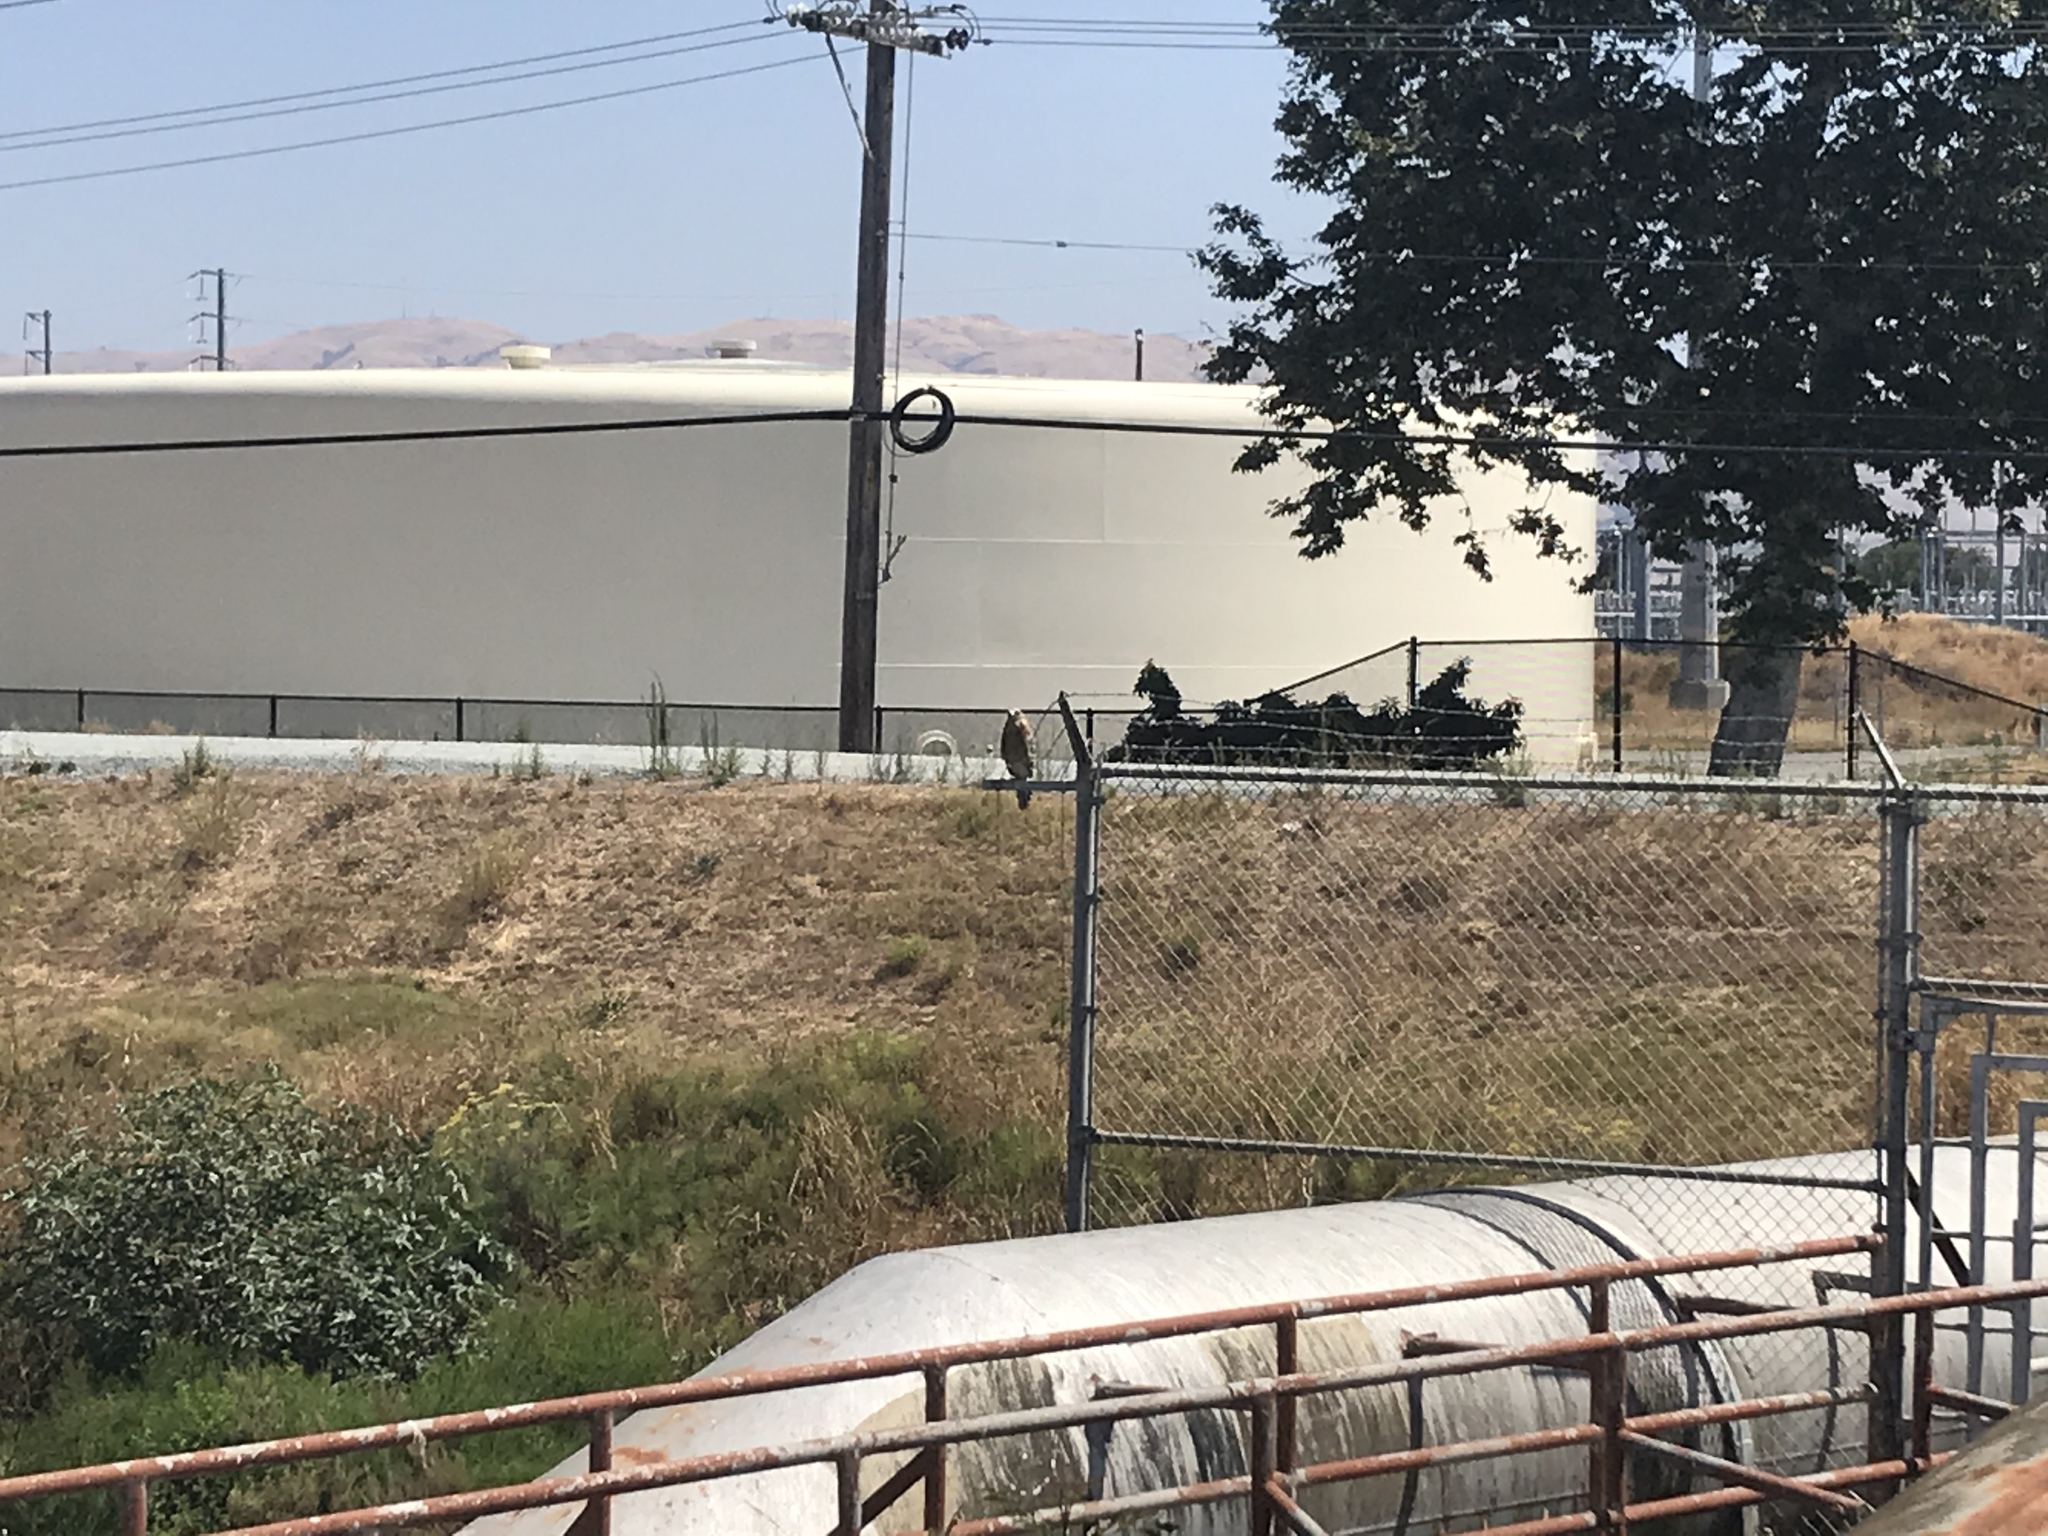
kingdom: Animalia
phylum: Chordata
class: Aves
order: Accipitriformes
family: Accipitridae
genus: Buteo
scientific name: Buteo lineatus
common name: Red-shouldered hawk
